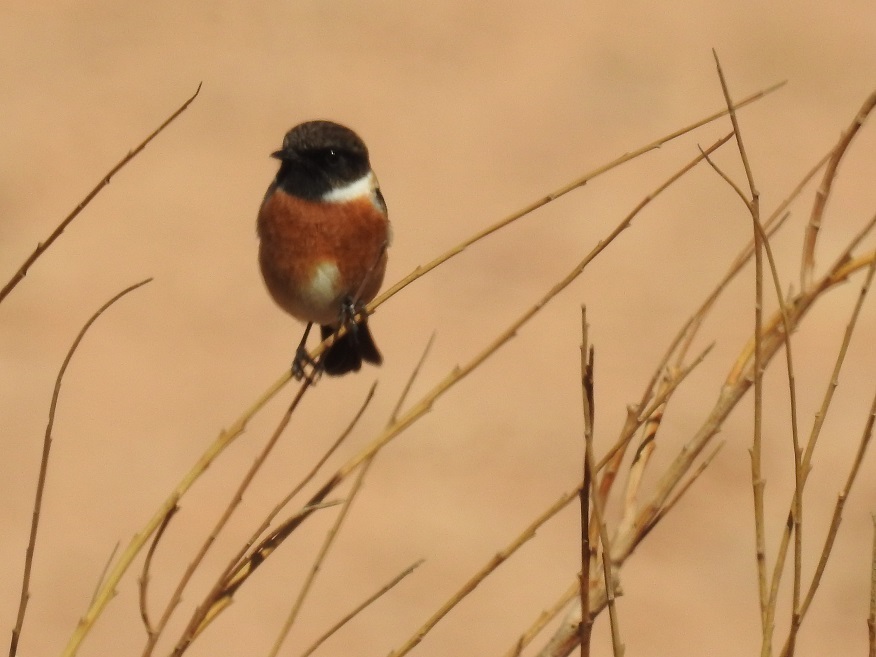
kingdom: Animalia
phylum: Chordata
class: Aves
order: Passeriformes
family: Muscicapidae
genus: Saxicola
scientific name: Saxicola rubicola
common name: European stonechat
